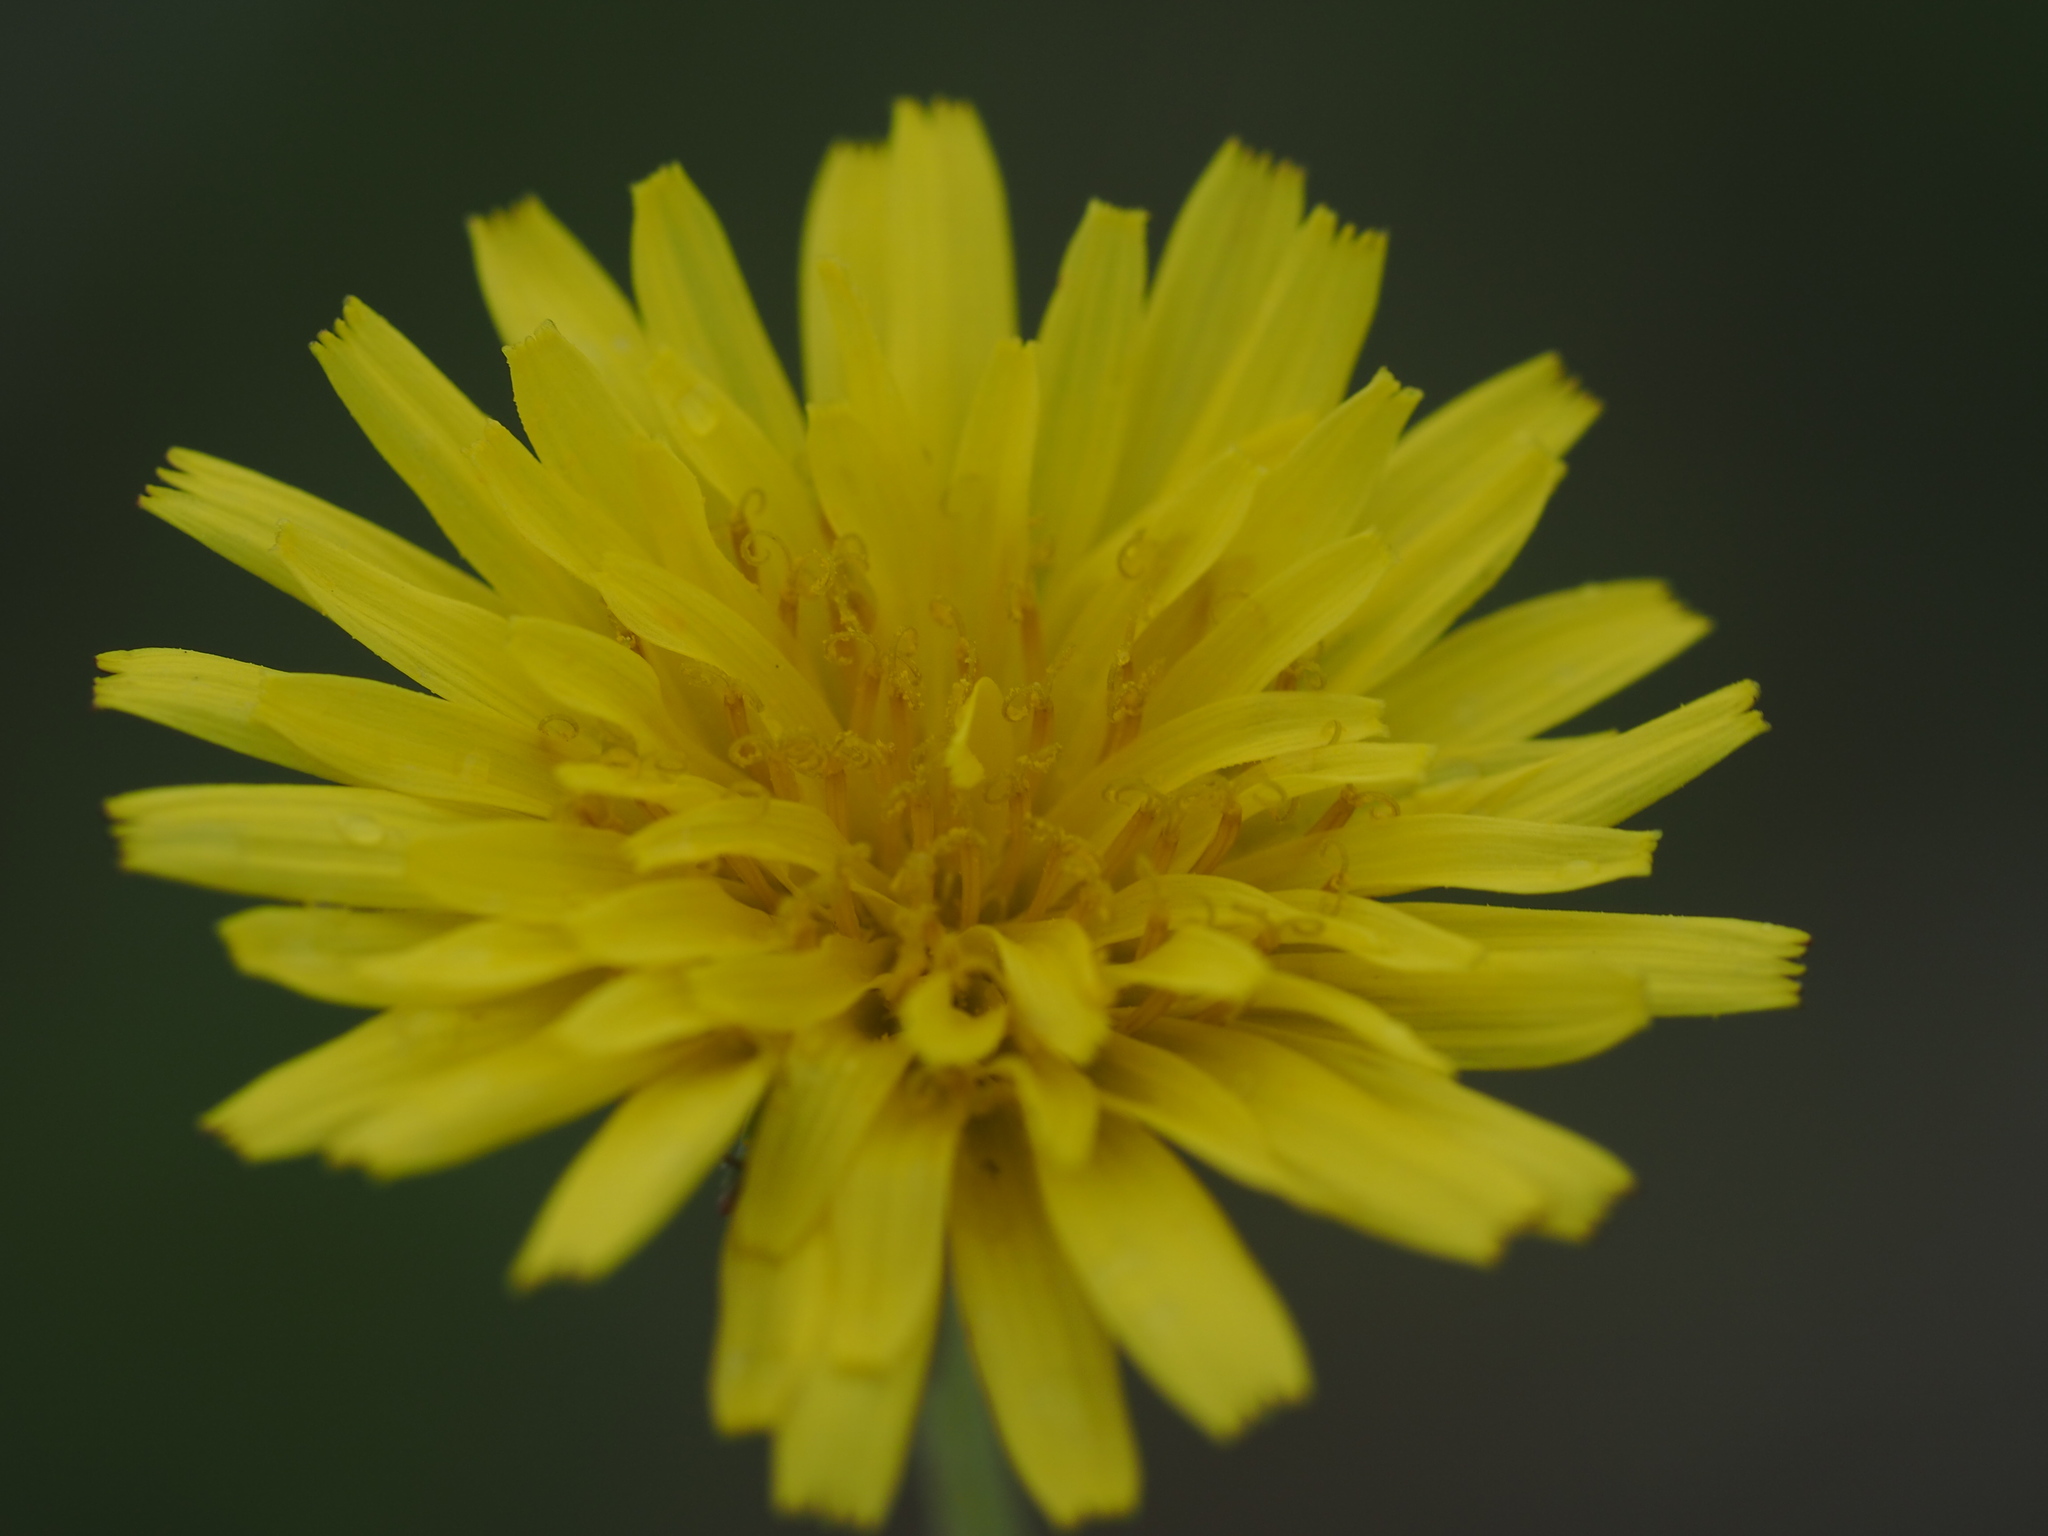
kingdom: Plantae
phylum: Tracheophyta
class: Magnoliopsida
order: Asterales
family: Asteraceae
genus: Taraxacum
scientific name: Taraxacum formosanum
